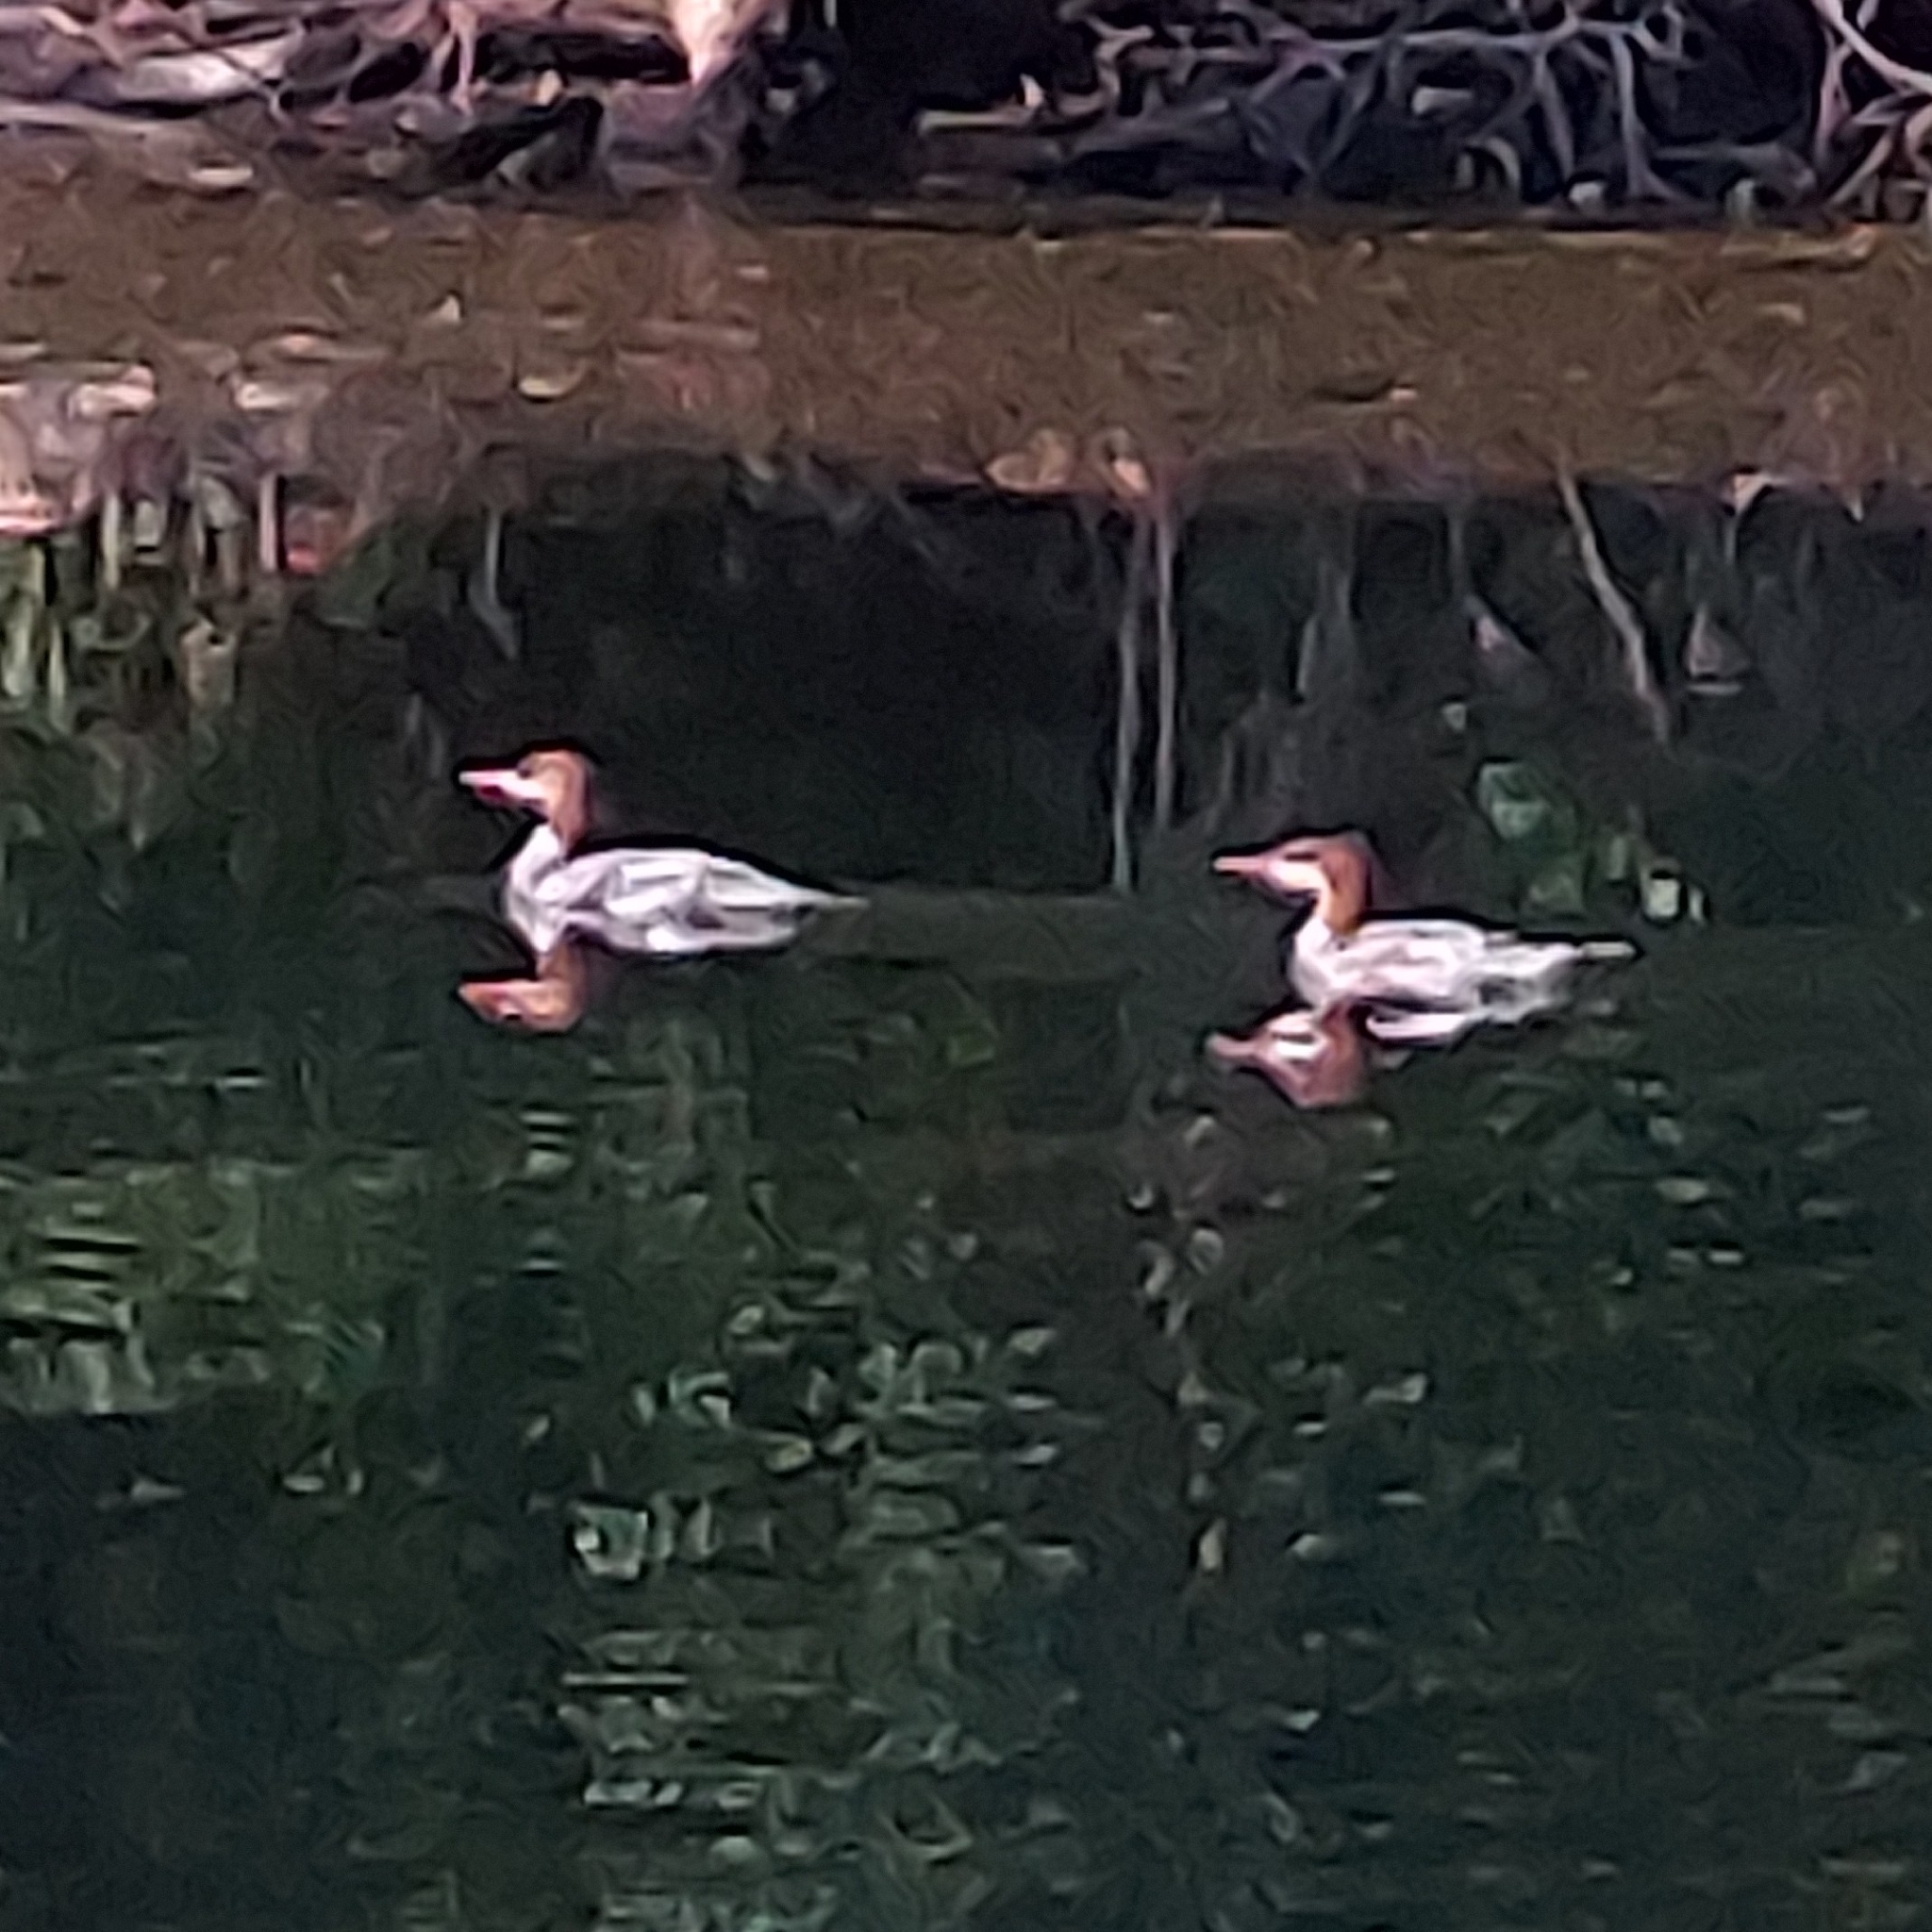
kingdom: Animalia
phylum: Chordata
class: Aves
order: Anseriformes
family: Anatidae
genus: Mergus
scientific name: Mergus merganser
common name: Common merganser
